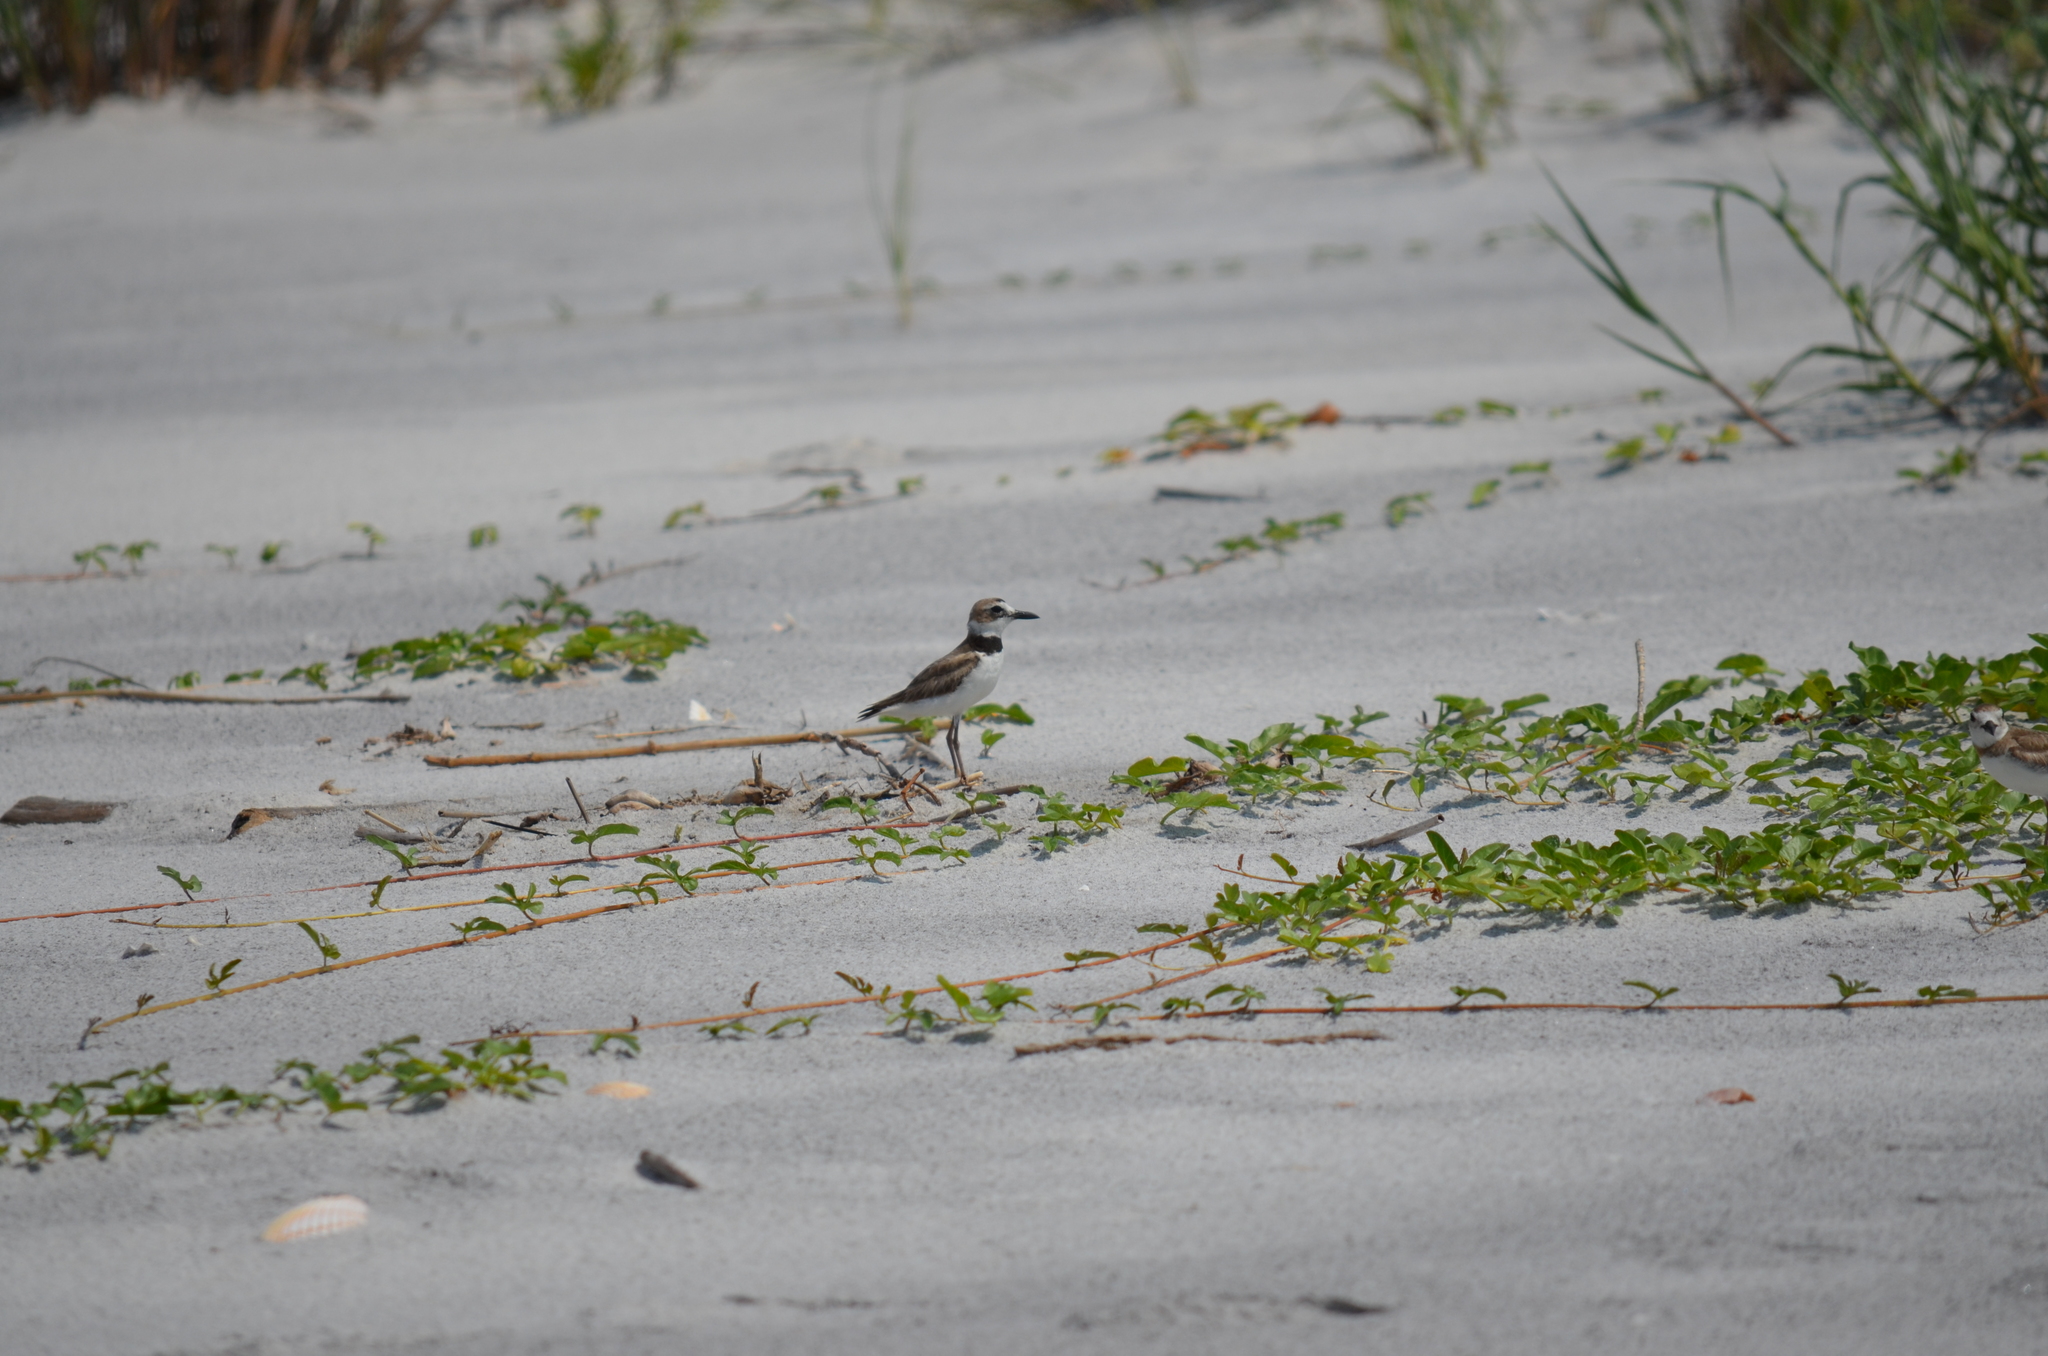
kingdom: Animalia
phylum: Chordata
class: Aves
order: Charadriiformes
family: Charadriidae
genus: Anarhynchus
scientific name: Anarhynchus
